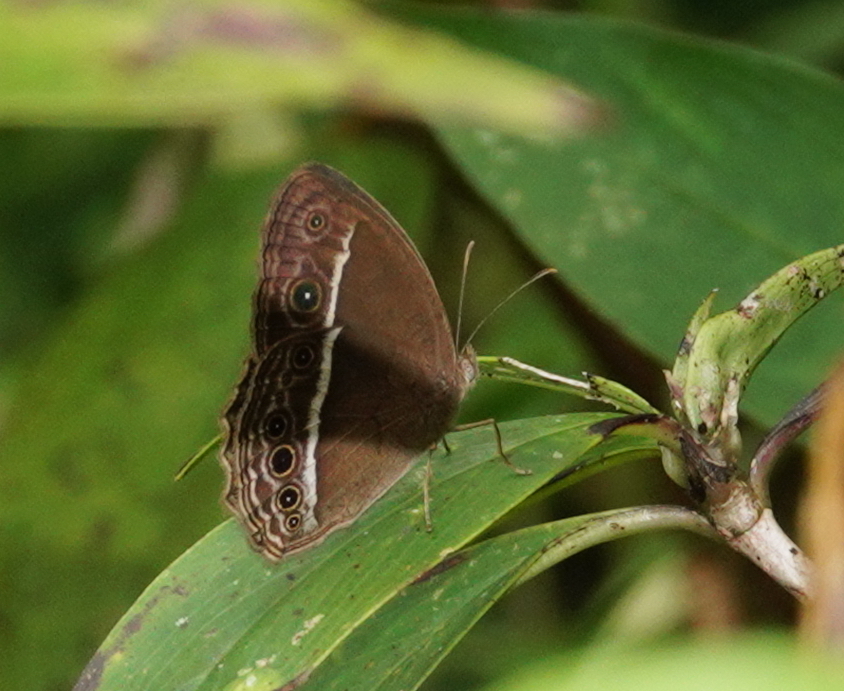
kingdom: Animalia
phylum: Arthropoda
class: Insecta
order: Lepidoptera
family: Nymphalidae
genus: Mycalesis
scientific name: Mycalesis mineus
